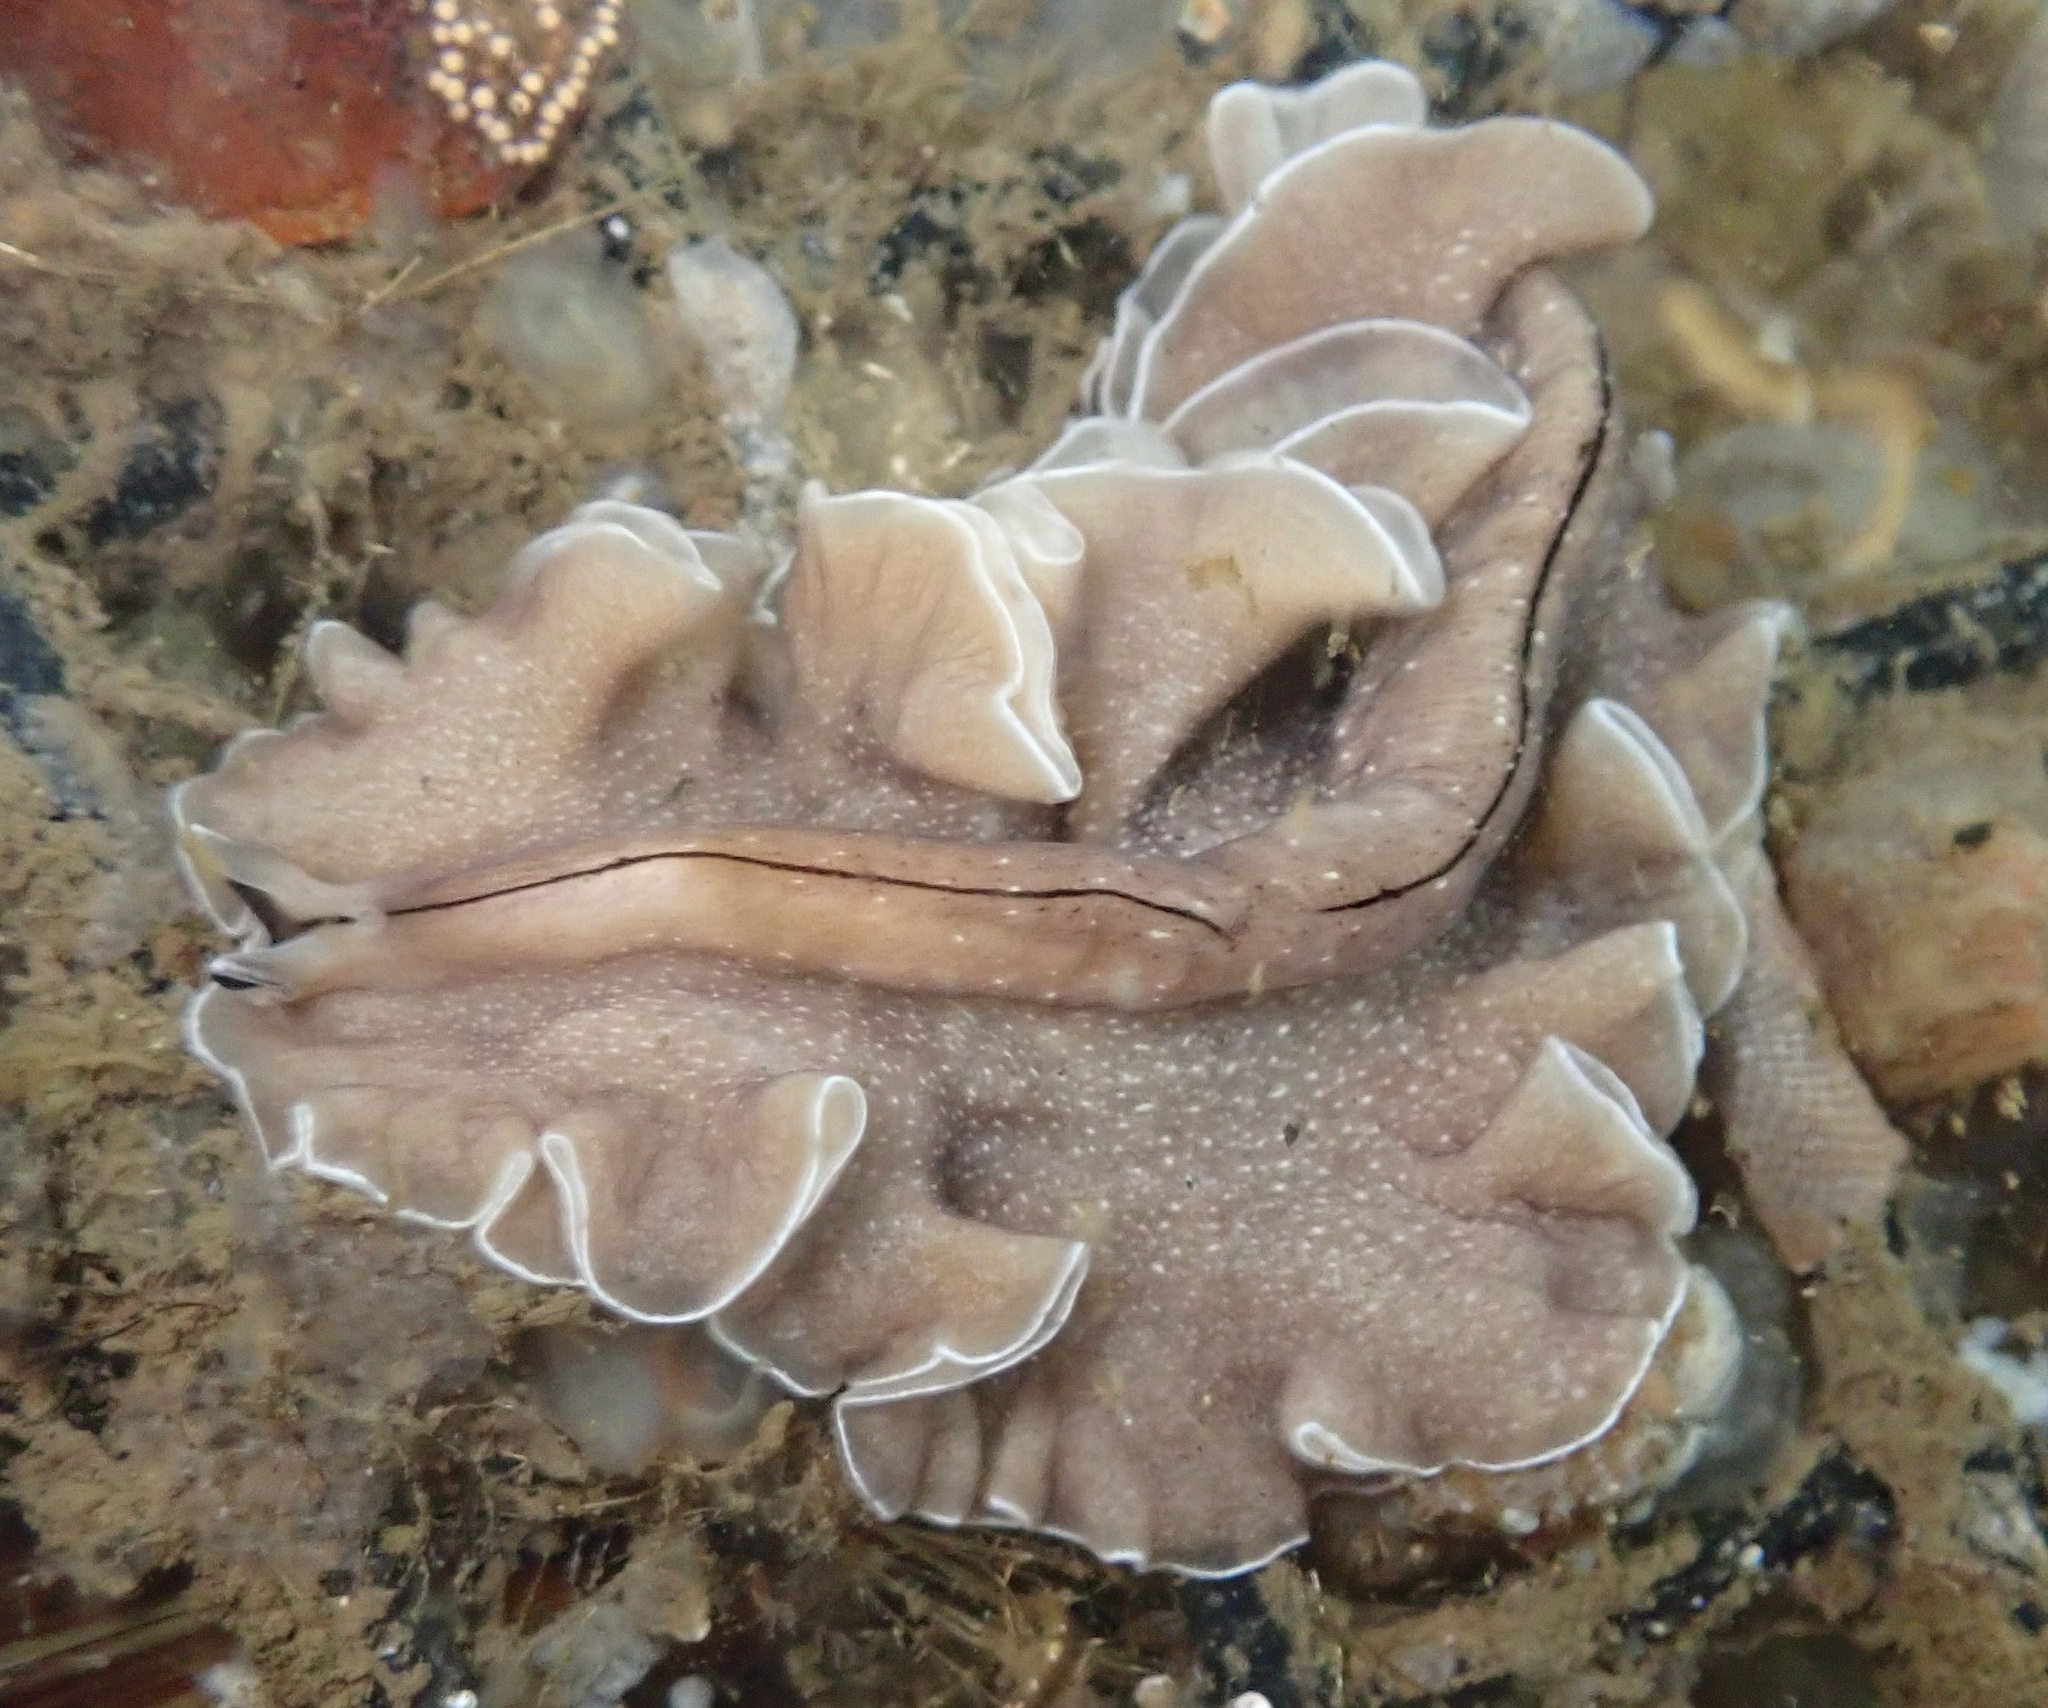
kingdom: Animalia
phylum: Platyhelminthes
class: Turbellaria
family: Pseudocerotidae
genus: Pseudoceros
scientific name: Pseudoceros luteus
